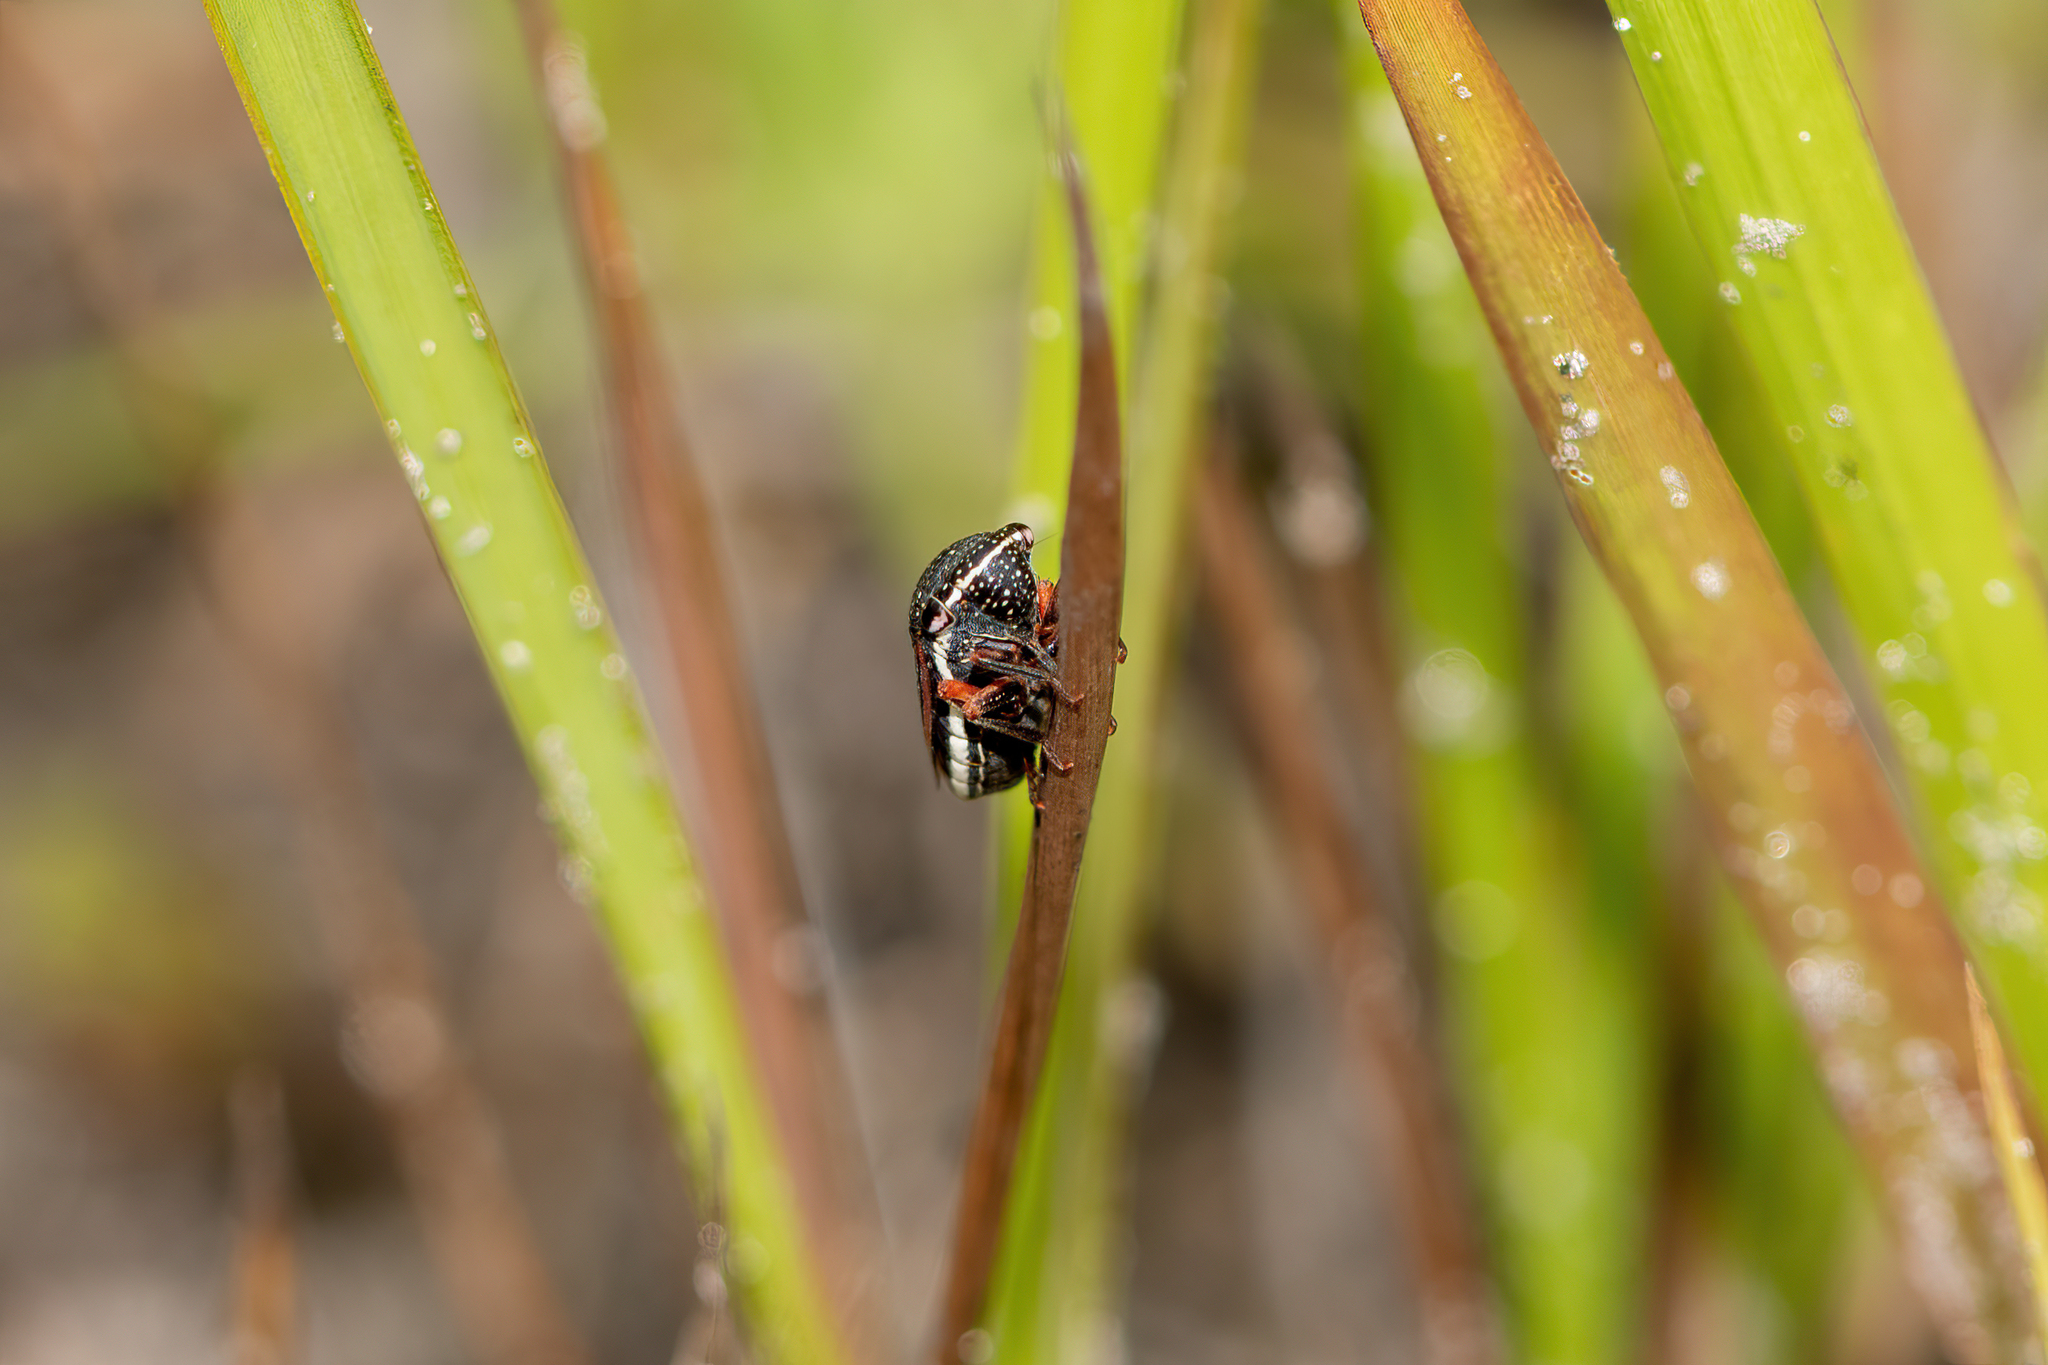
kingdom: Animalia
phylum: Arthropoda
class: Insecta
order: Hemiptera
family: Cicadellidae
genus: Cuerna
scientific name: Cuerna costalis
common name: Lateral-lined sharpshooter
